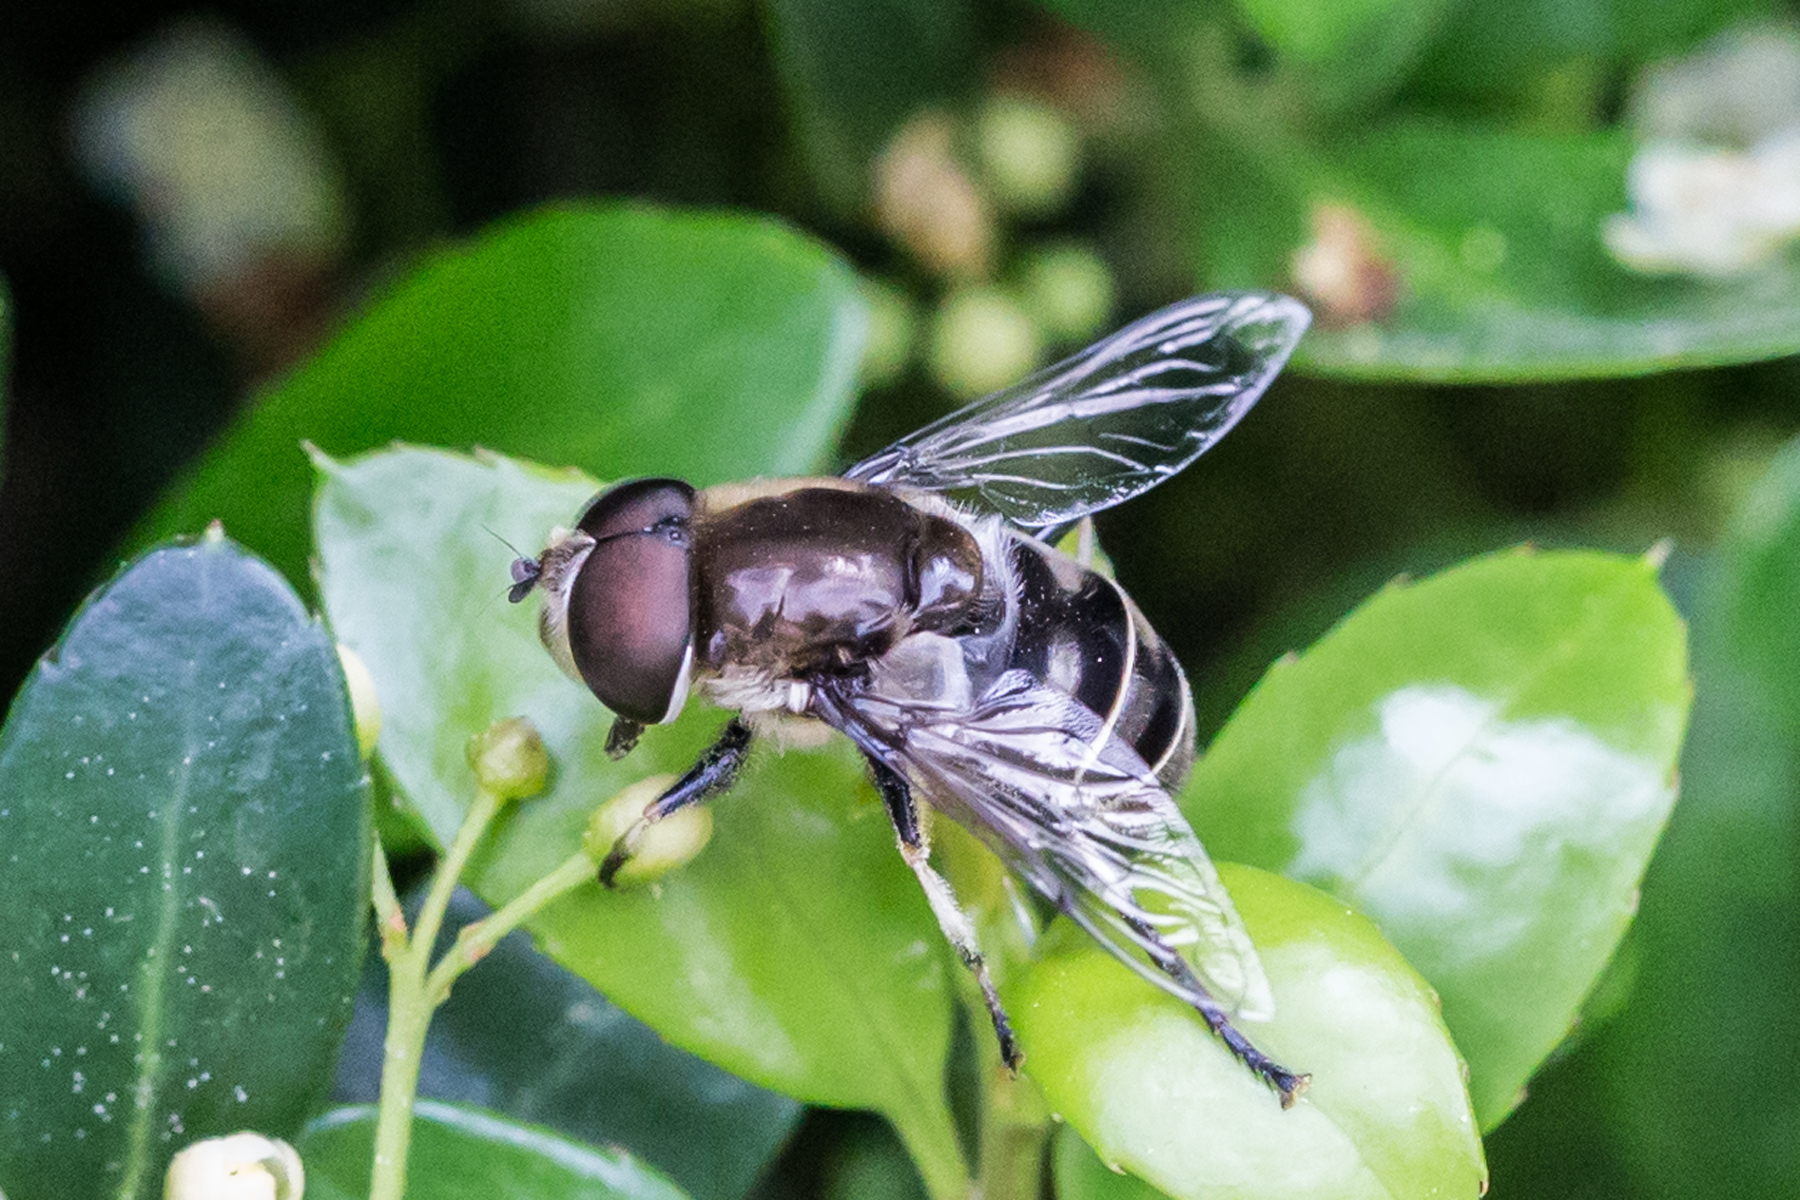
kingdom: Animalia
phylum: Arthropoda
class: Insecta
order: Diptera
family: Syrphidae
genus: Eristalis
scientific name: Eristalis dimidiata
